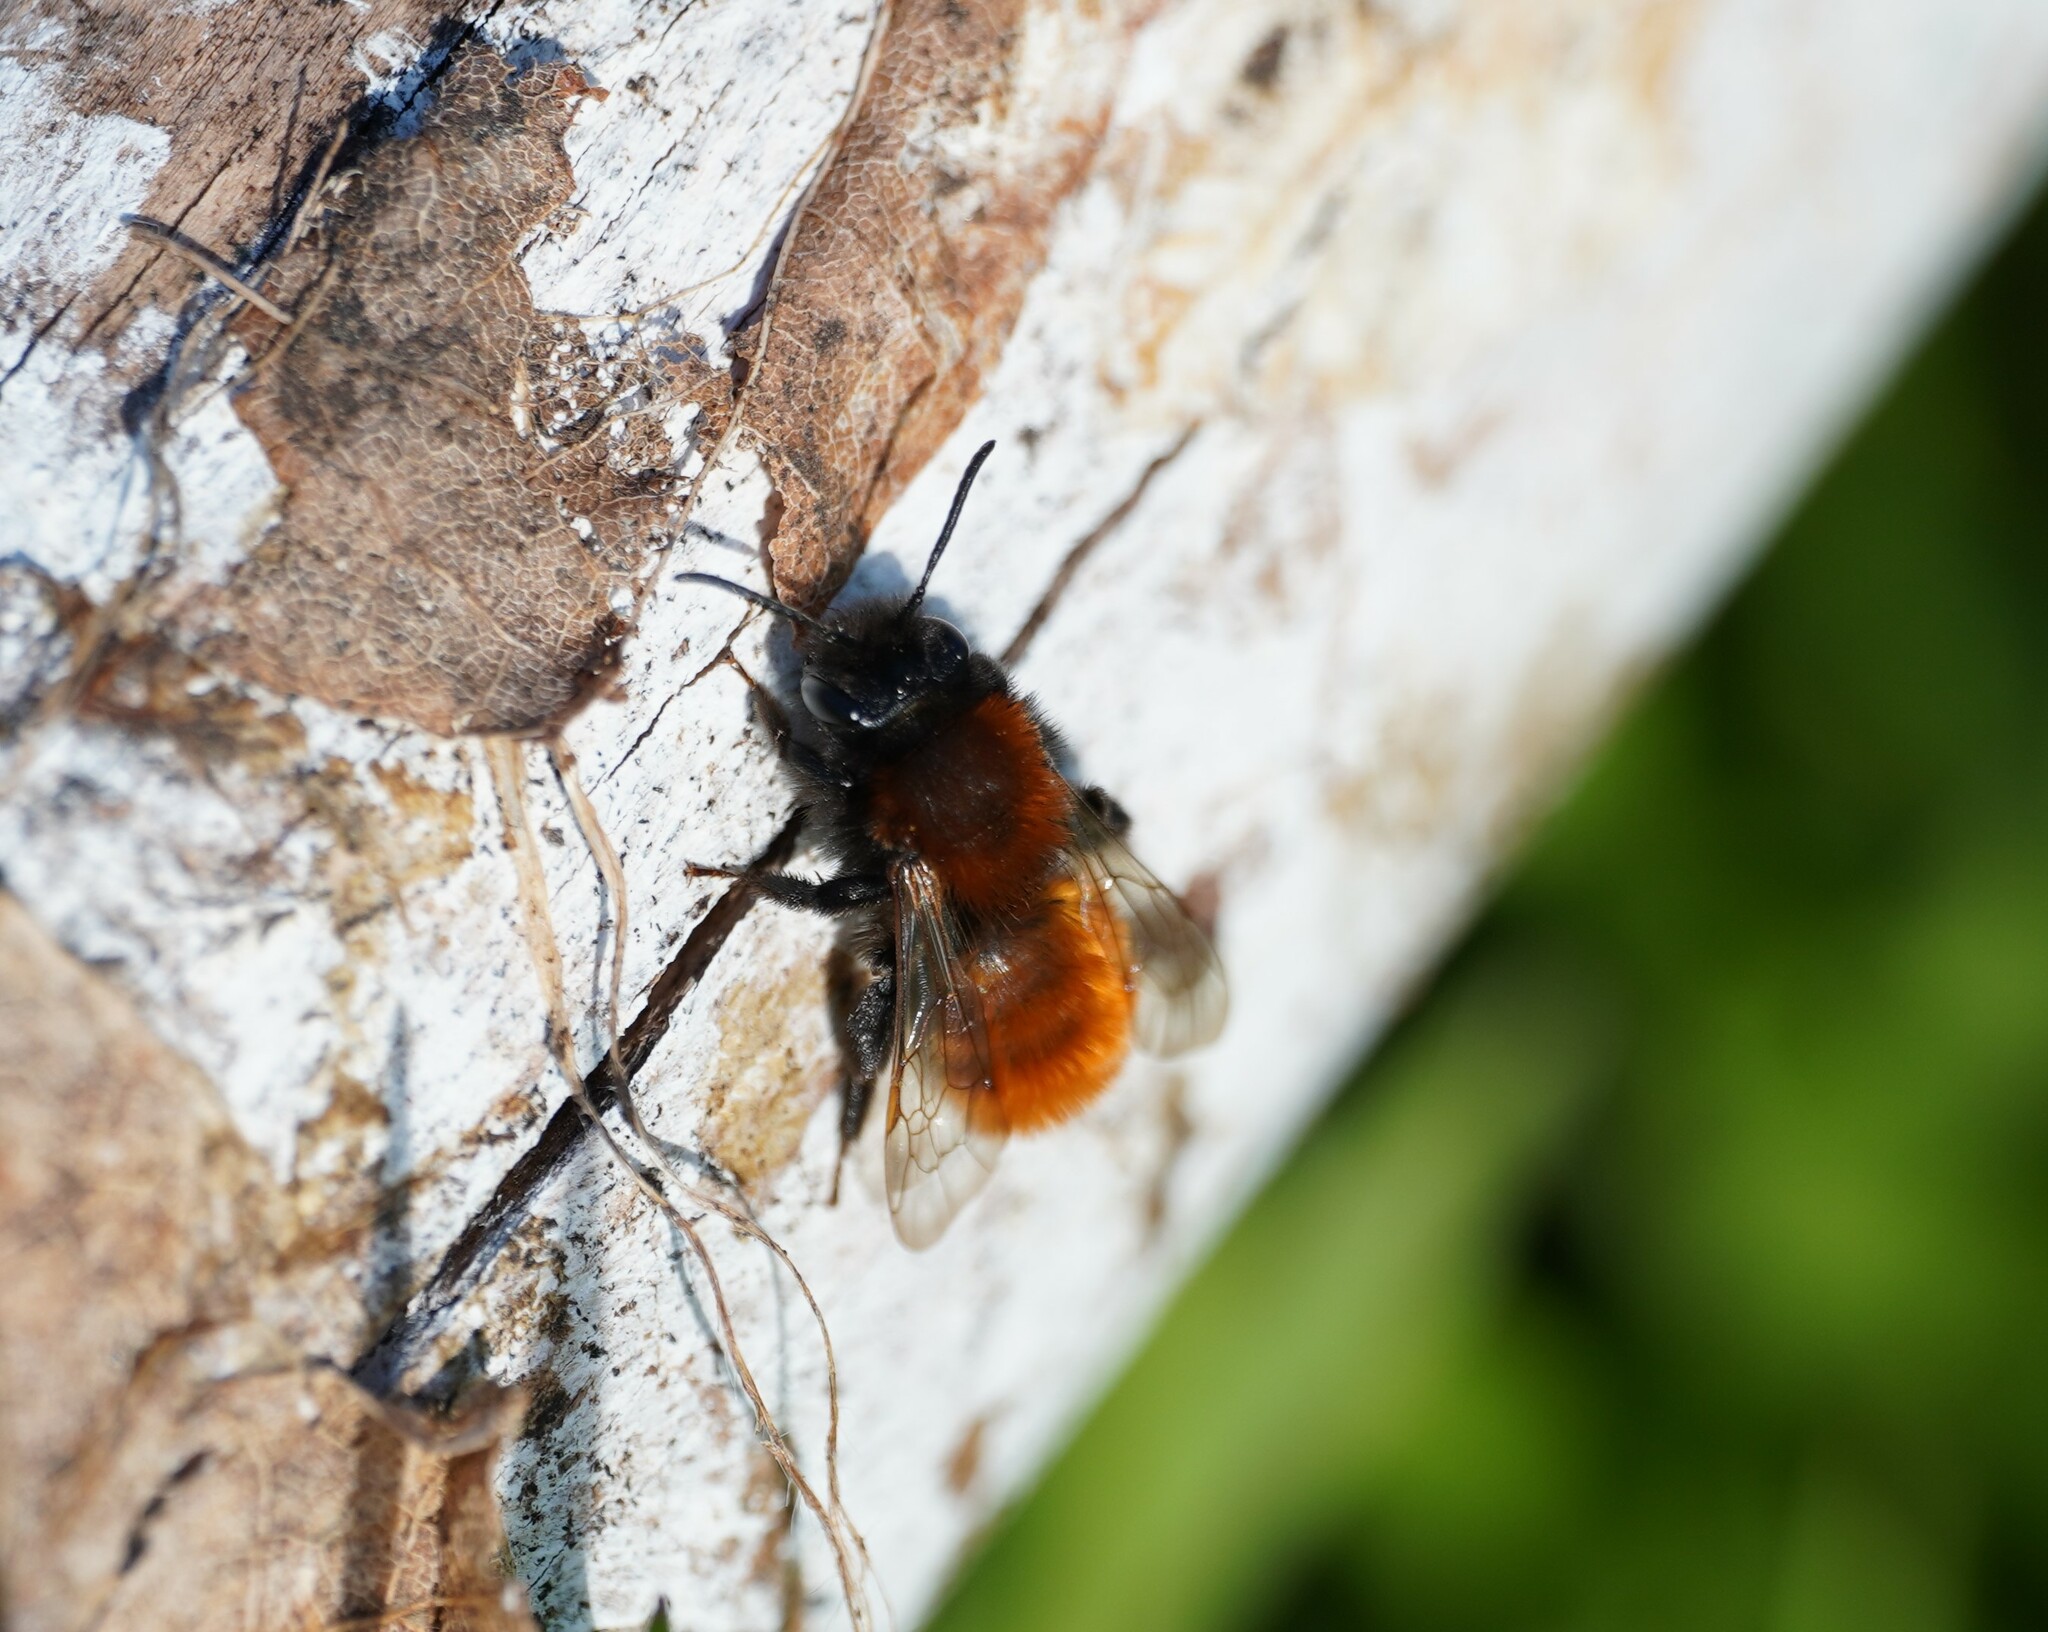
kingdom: Animalia
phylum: Arthropoda
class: Insecta
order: Hymenoptera
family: Andrenidae
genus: Andrena
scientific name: Andrena fulva
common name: Tawny mining bee
